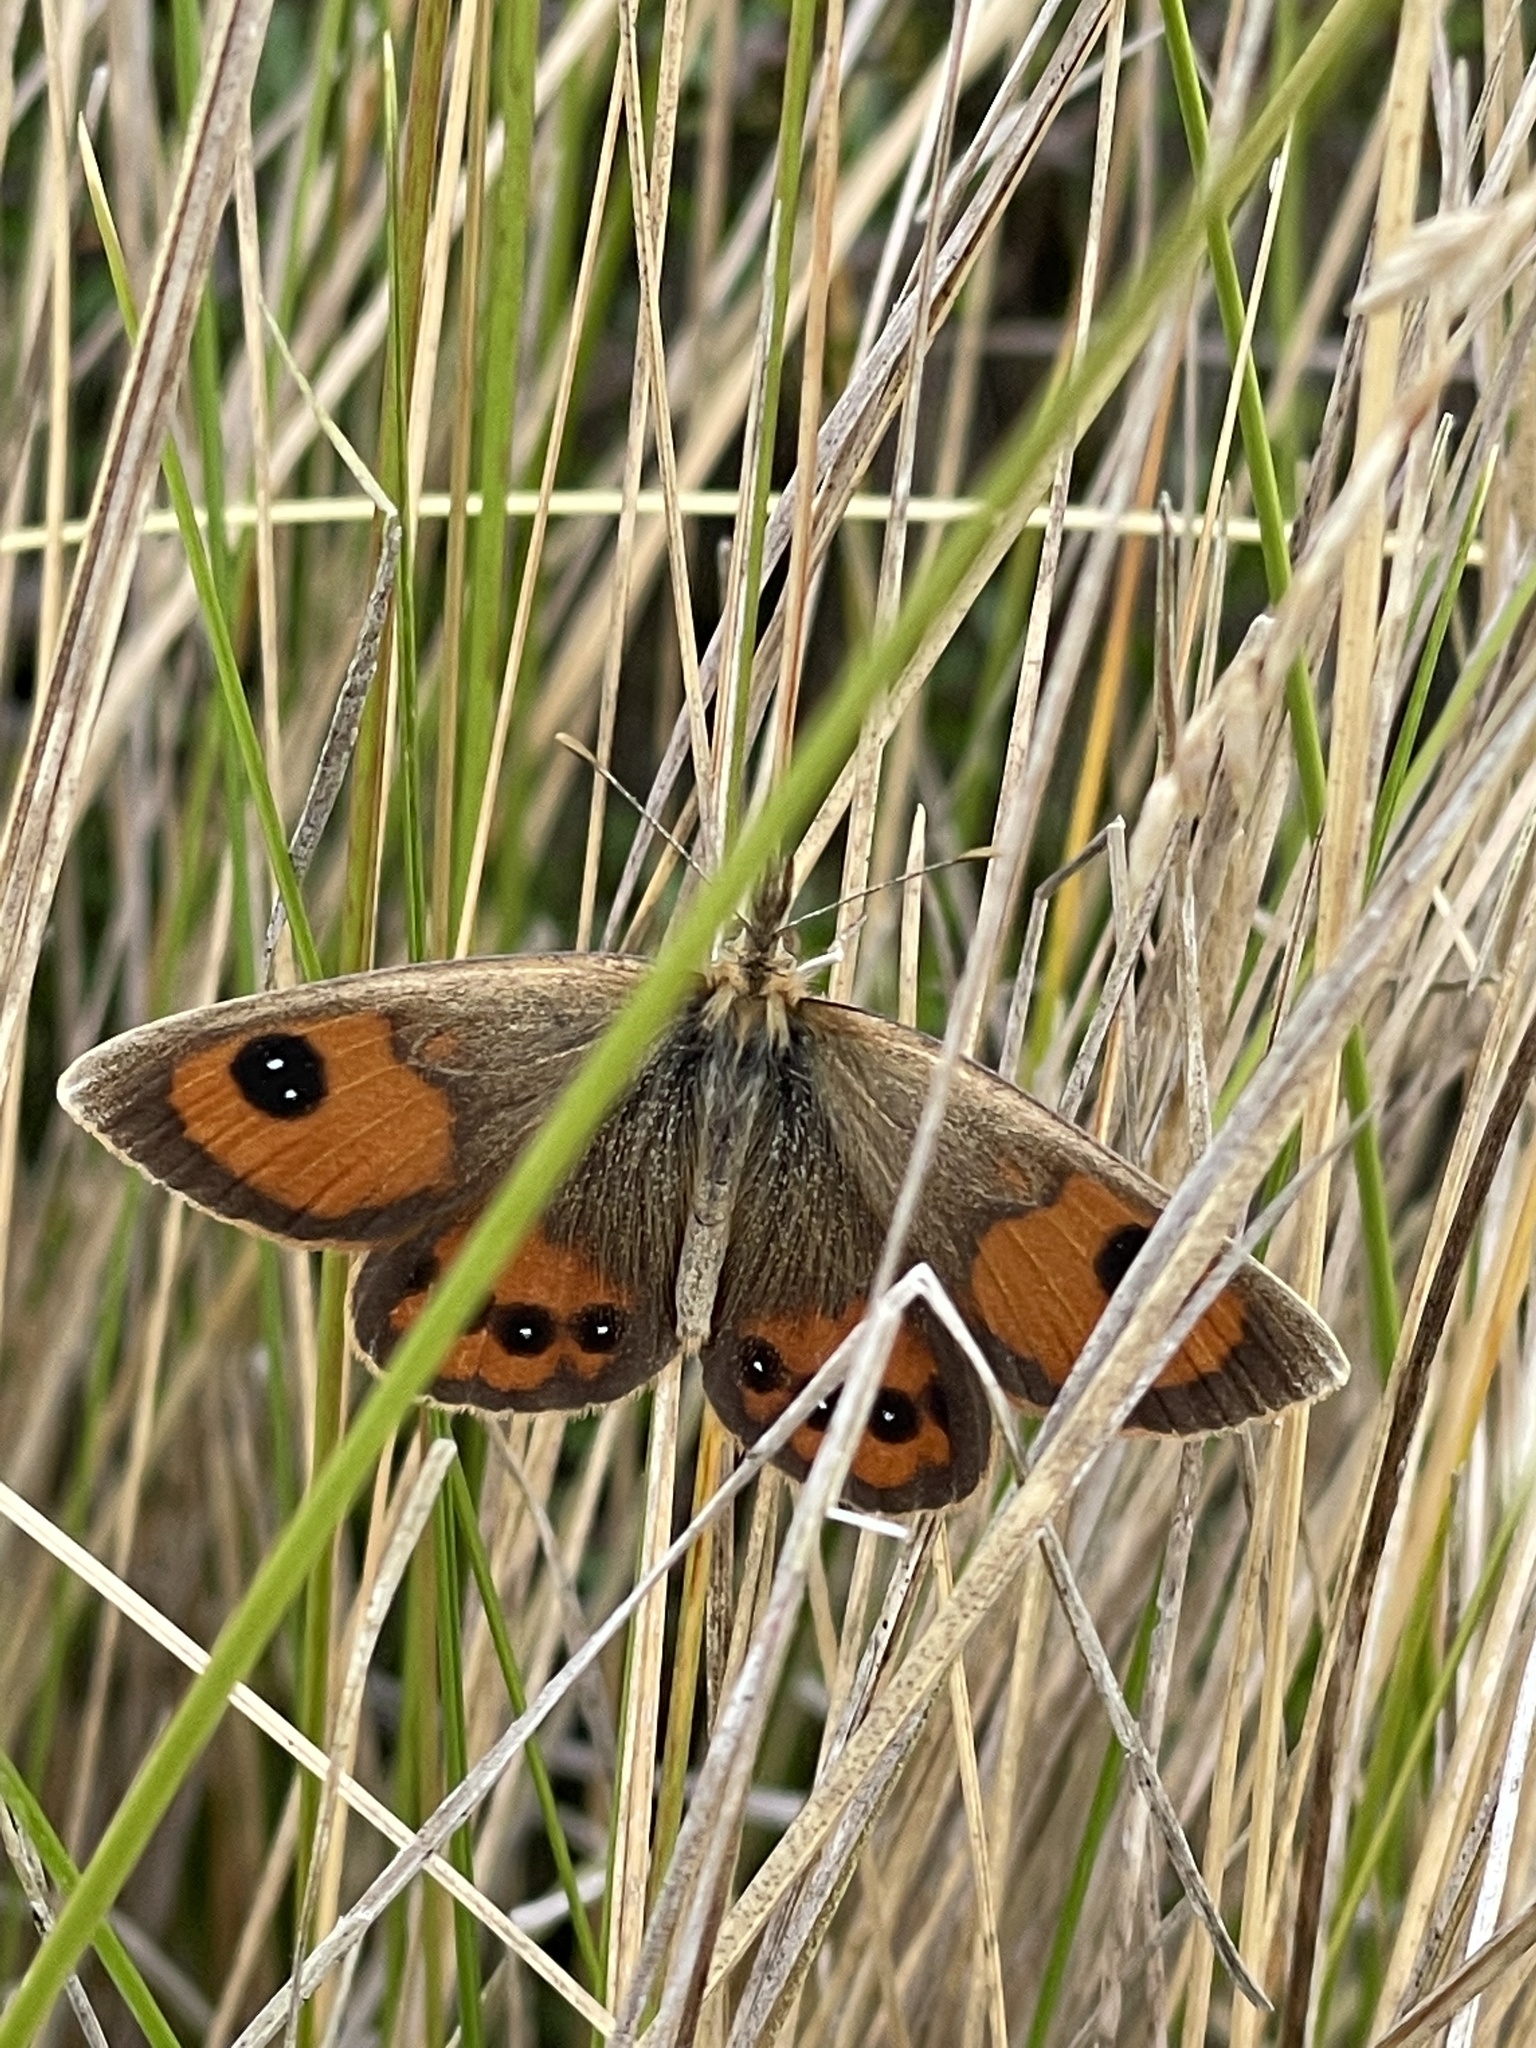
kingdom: Animalia
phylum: Arthropoda
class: Insecta
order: Lepidoptera
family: Nymphalidae
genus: Argyrophenga
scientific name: Argyrophenga antipodum
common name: Common tussock butterfly
